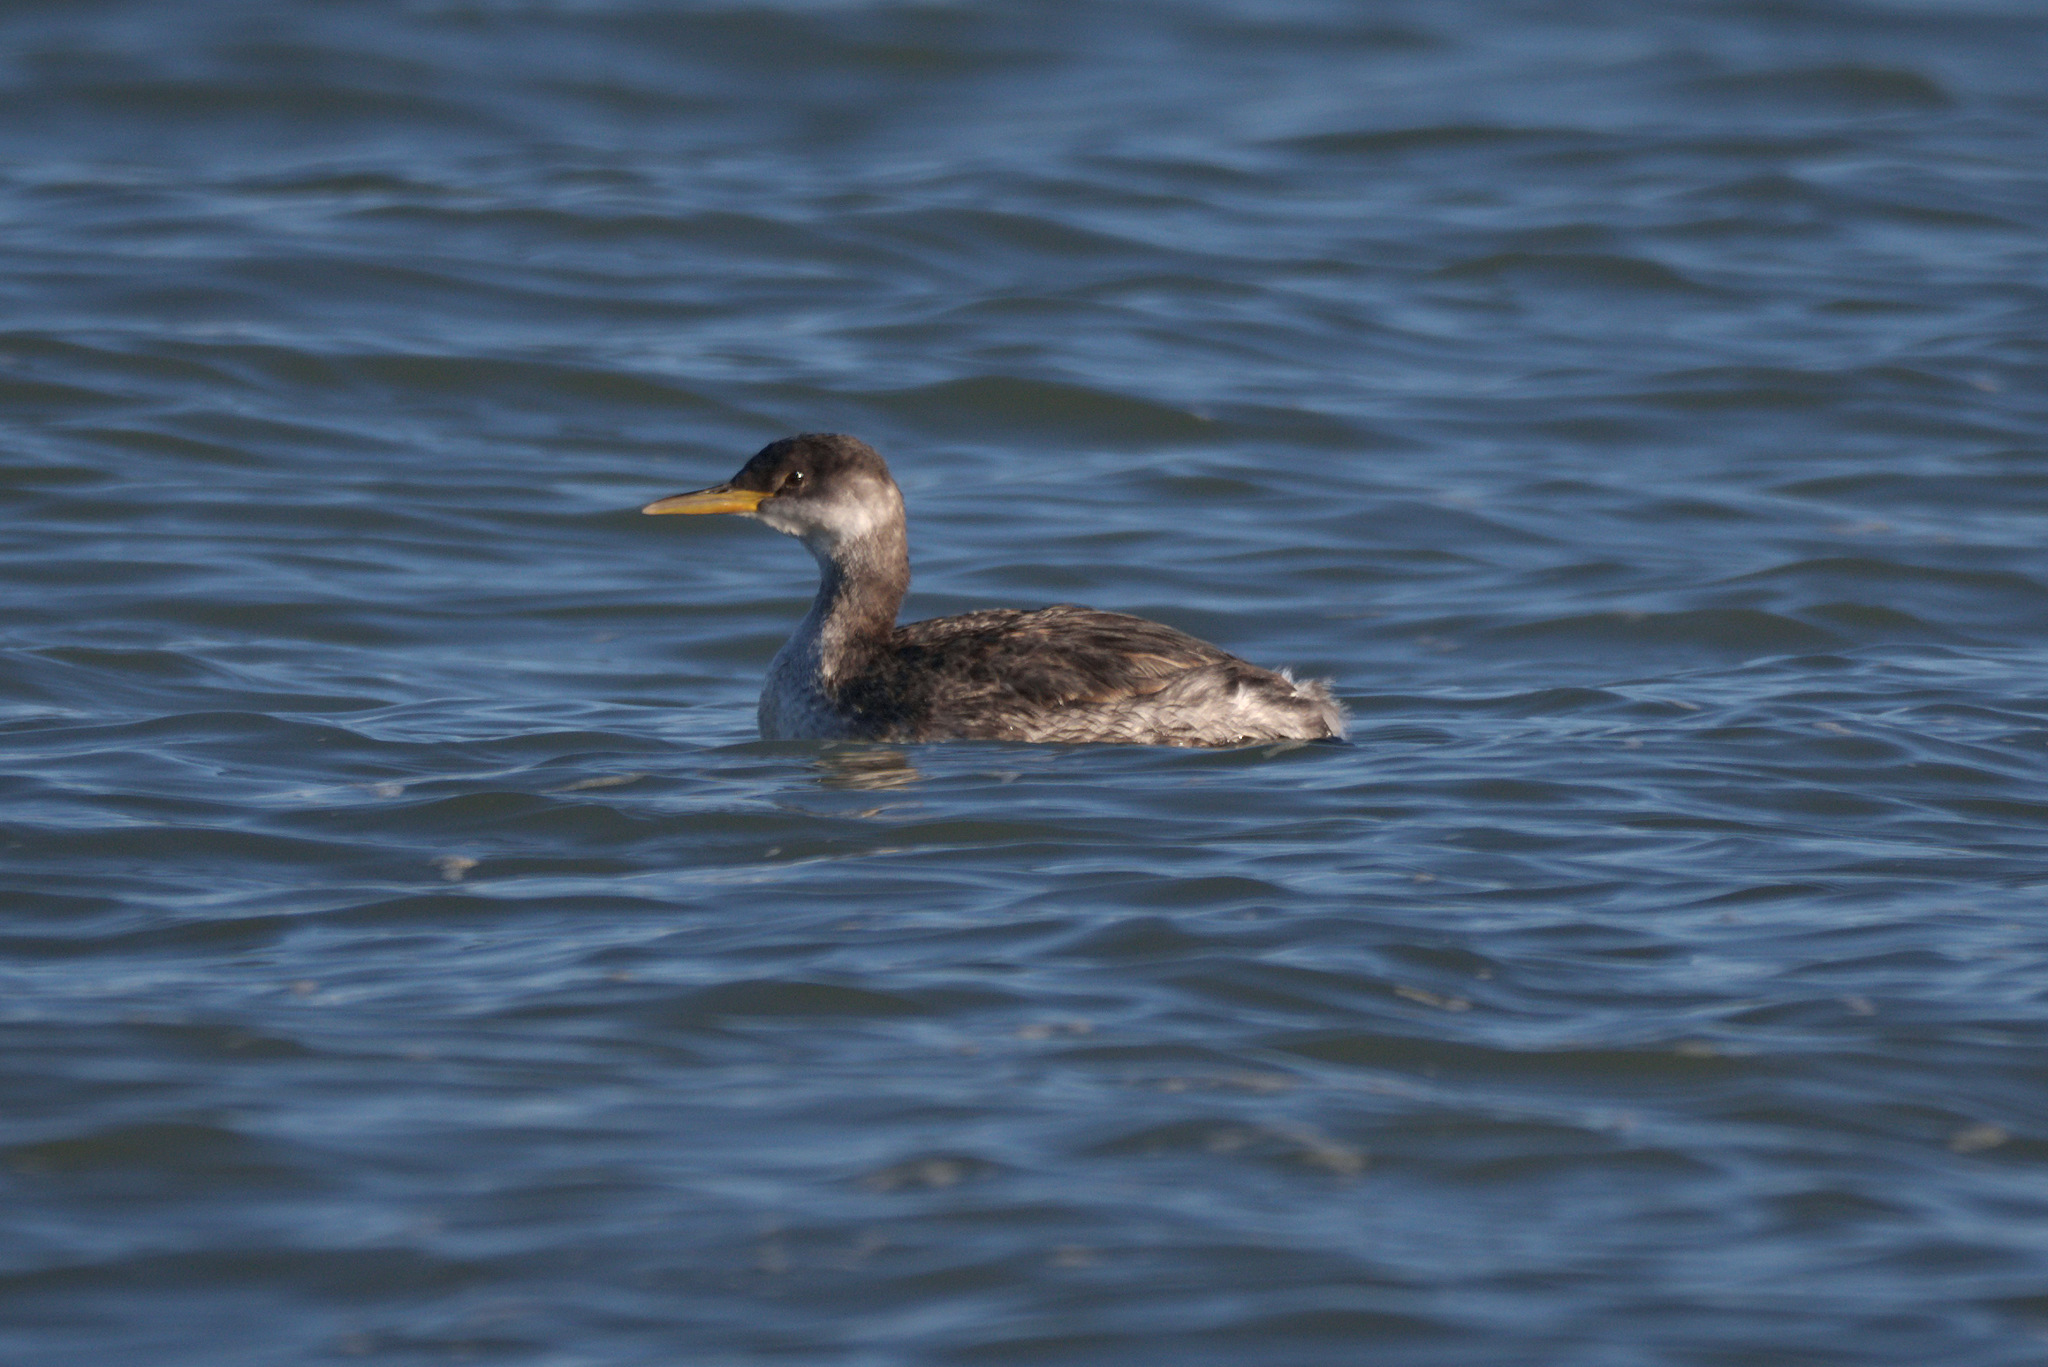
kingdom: Animalia
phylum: Chordata
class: Aves
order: Podicipediformes
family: Podicipedidae
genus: Podiceps
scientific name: Podiceps grisegena
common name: Red-necked grebe
